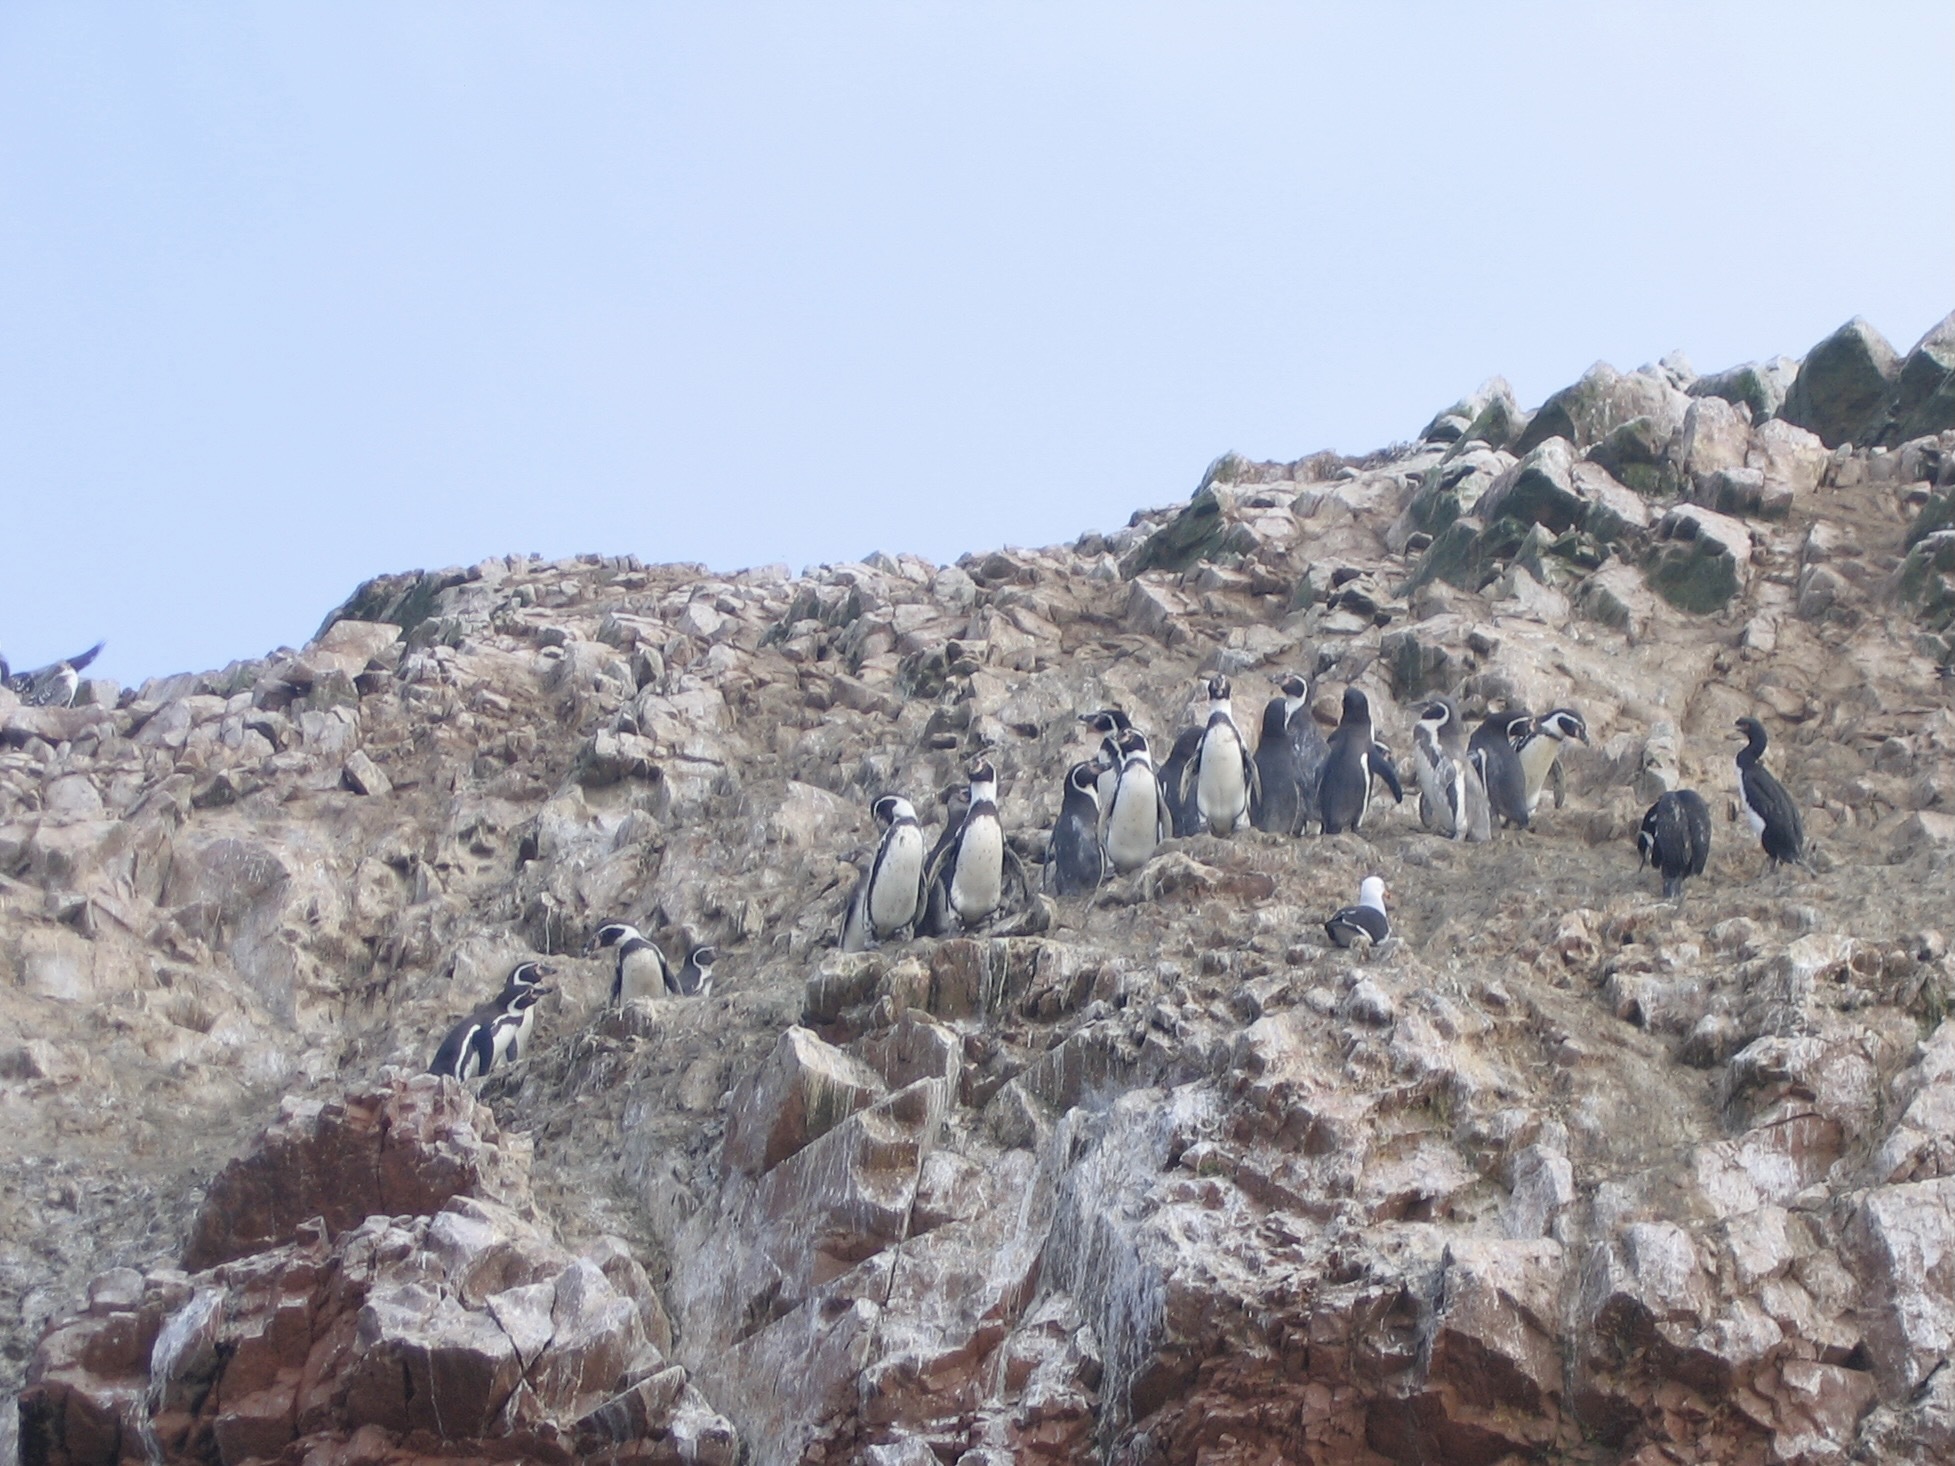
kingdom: Animalia
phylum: Chordata
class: Aves
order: Sphenisciformes
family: Spheniscidae
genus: Spheniscus
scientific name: Spheniscus humboldti
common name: Humboldt penguin
